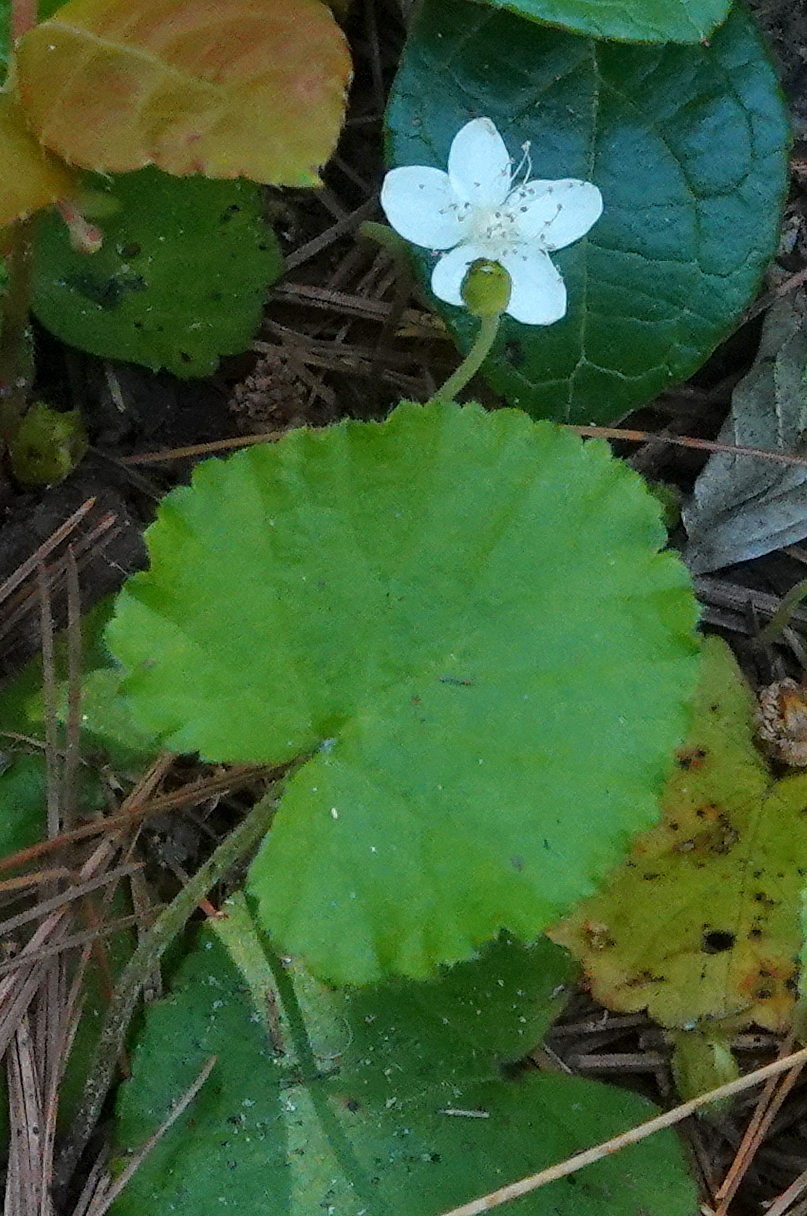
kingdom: Plantae
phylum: Tracheophyta
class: Magnoliopsida
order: Rosales
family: Rosaceae
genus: Dalibarda
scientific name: Dalibarda repens
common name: Dewdrop
